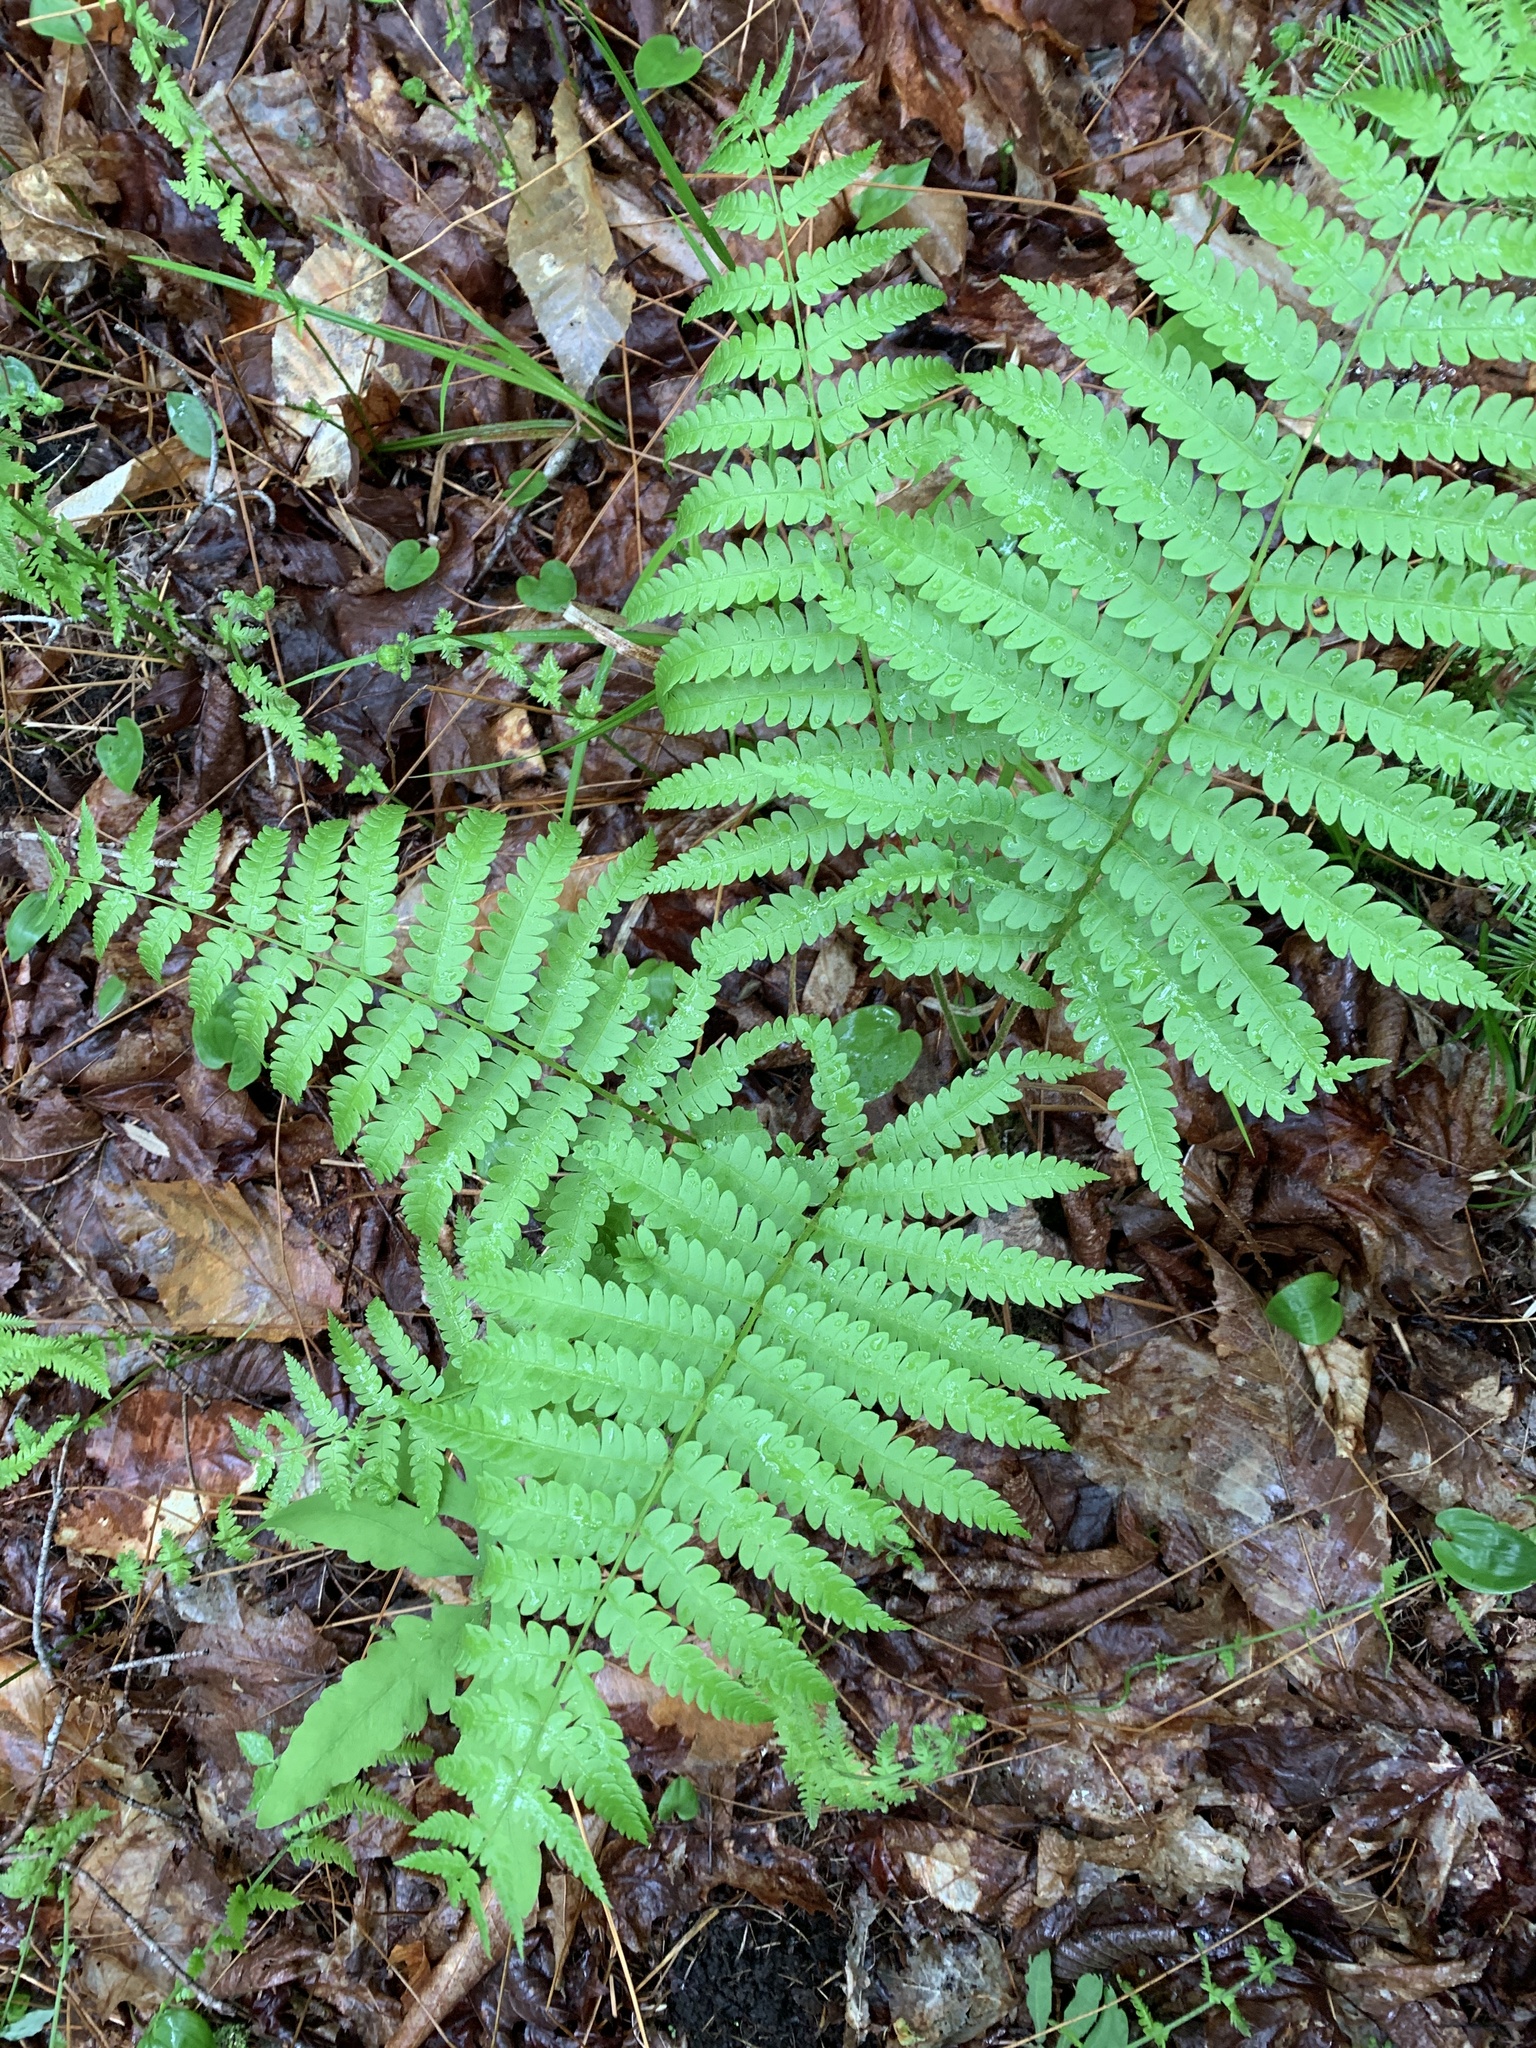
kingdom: Plantae
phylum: Tracheophyta
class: Polypodiopsida
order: Osmundales
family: Osmundaceae
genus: Osmundastrum
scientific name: Osmundastrum cinnamomeum
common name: Cinnamon fern
